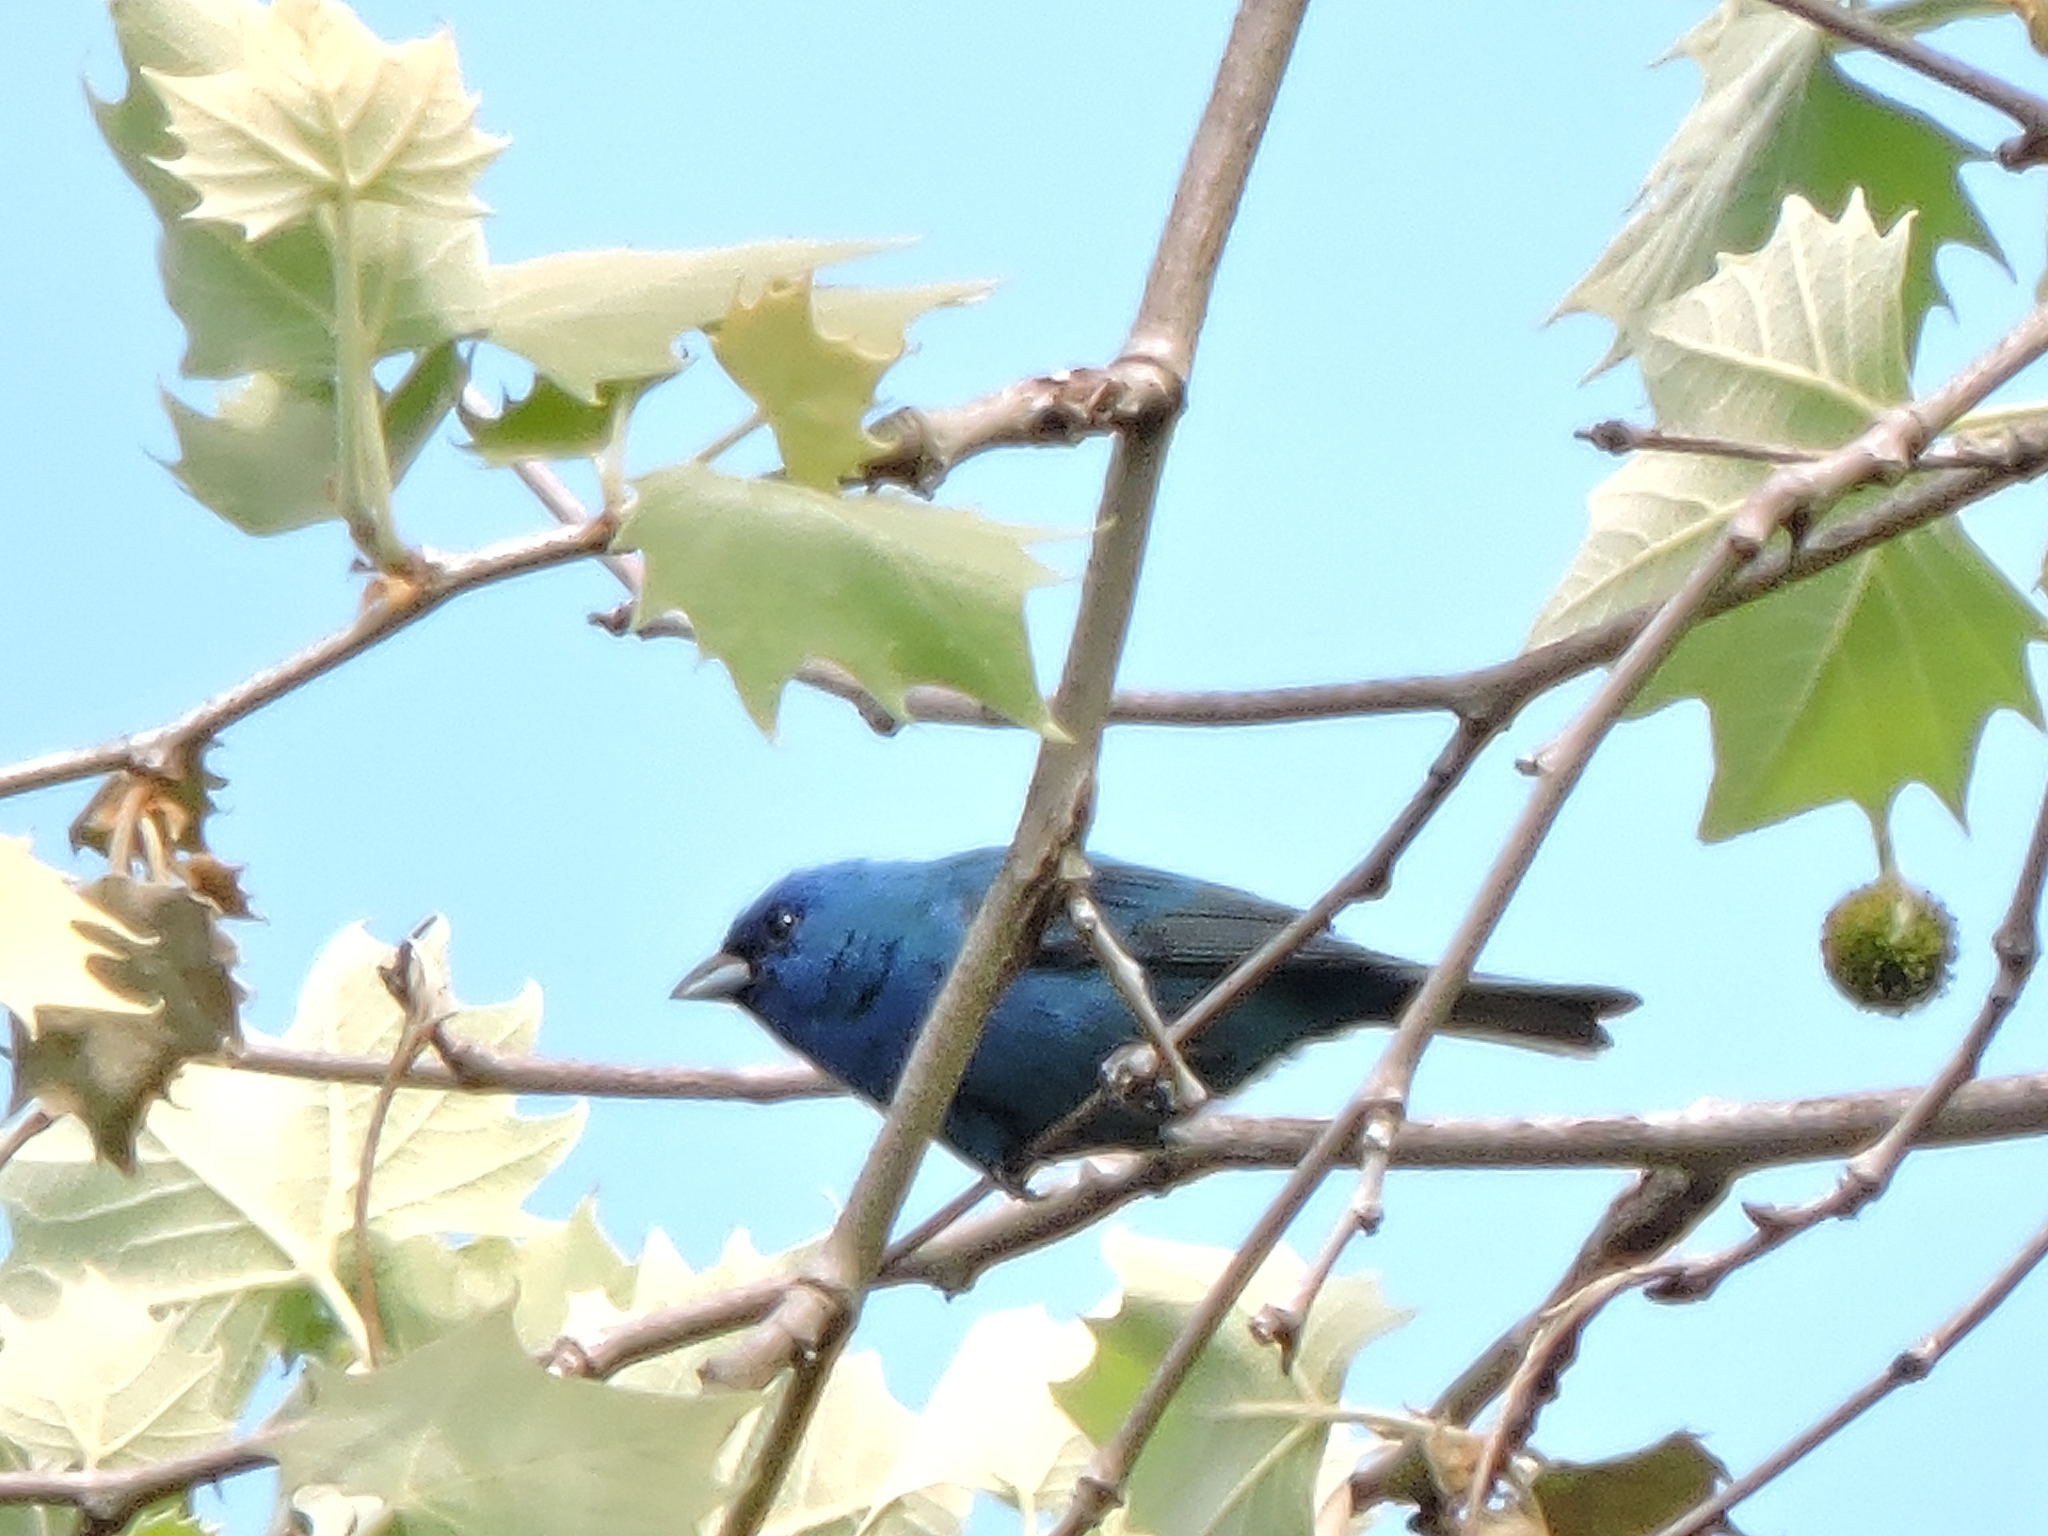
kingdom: Animalia
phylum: Chordata
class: Aves
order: Passeriformes
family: Cardinalidae
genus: Passerina
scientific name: Passerina cyanea
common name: Indigo bunting
